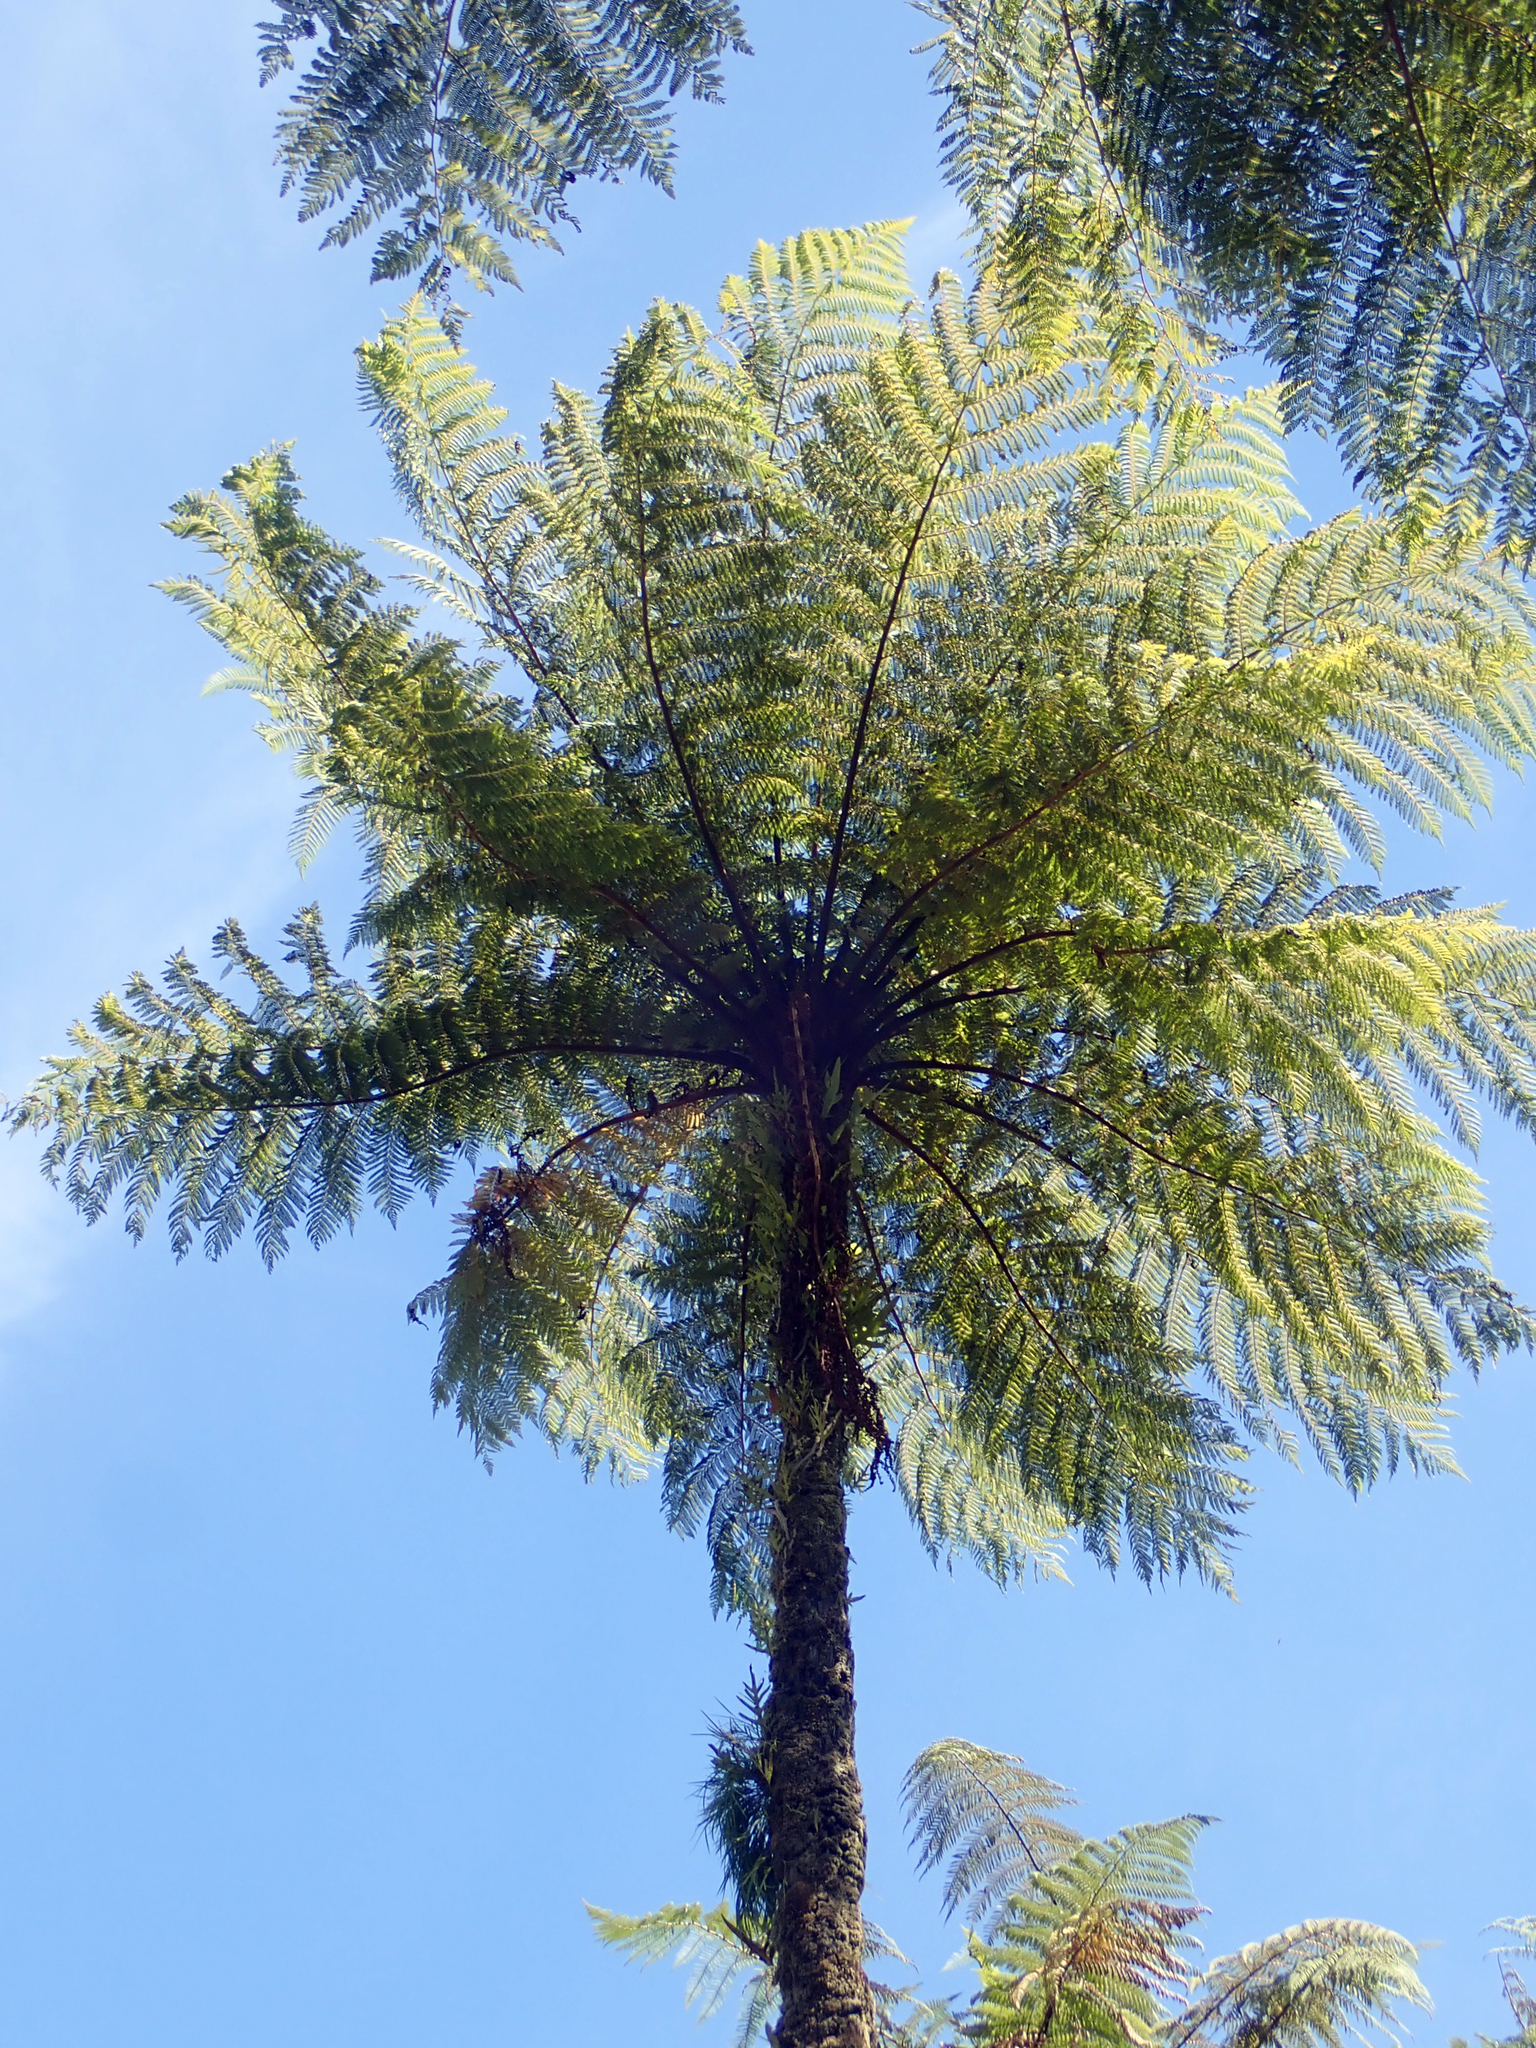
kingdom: Plantae
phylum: Tracheophyta
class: Polypodiopsida
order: Cyatheales
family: Cyatheaceae
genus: Cyathea
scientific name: Cyathea cunninghamii
